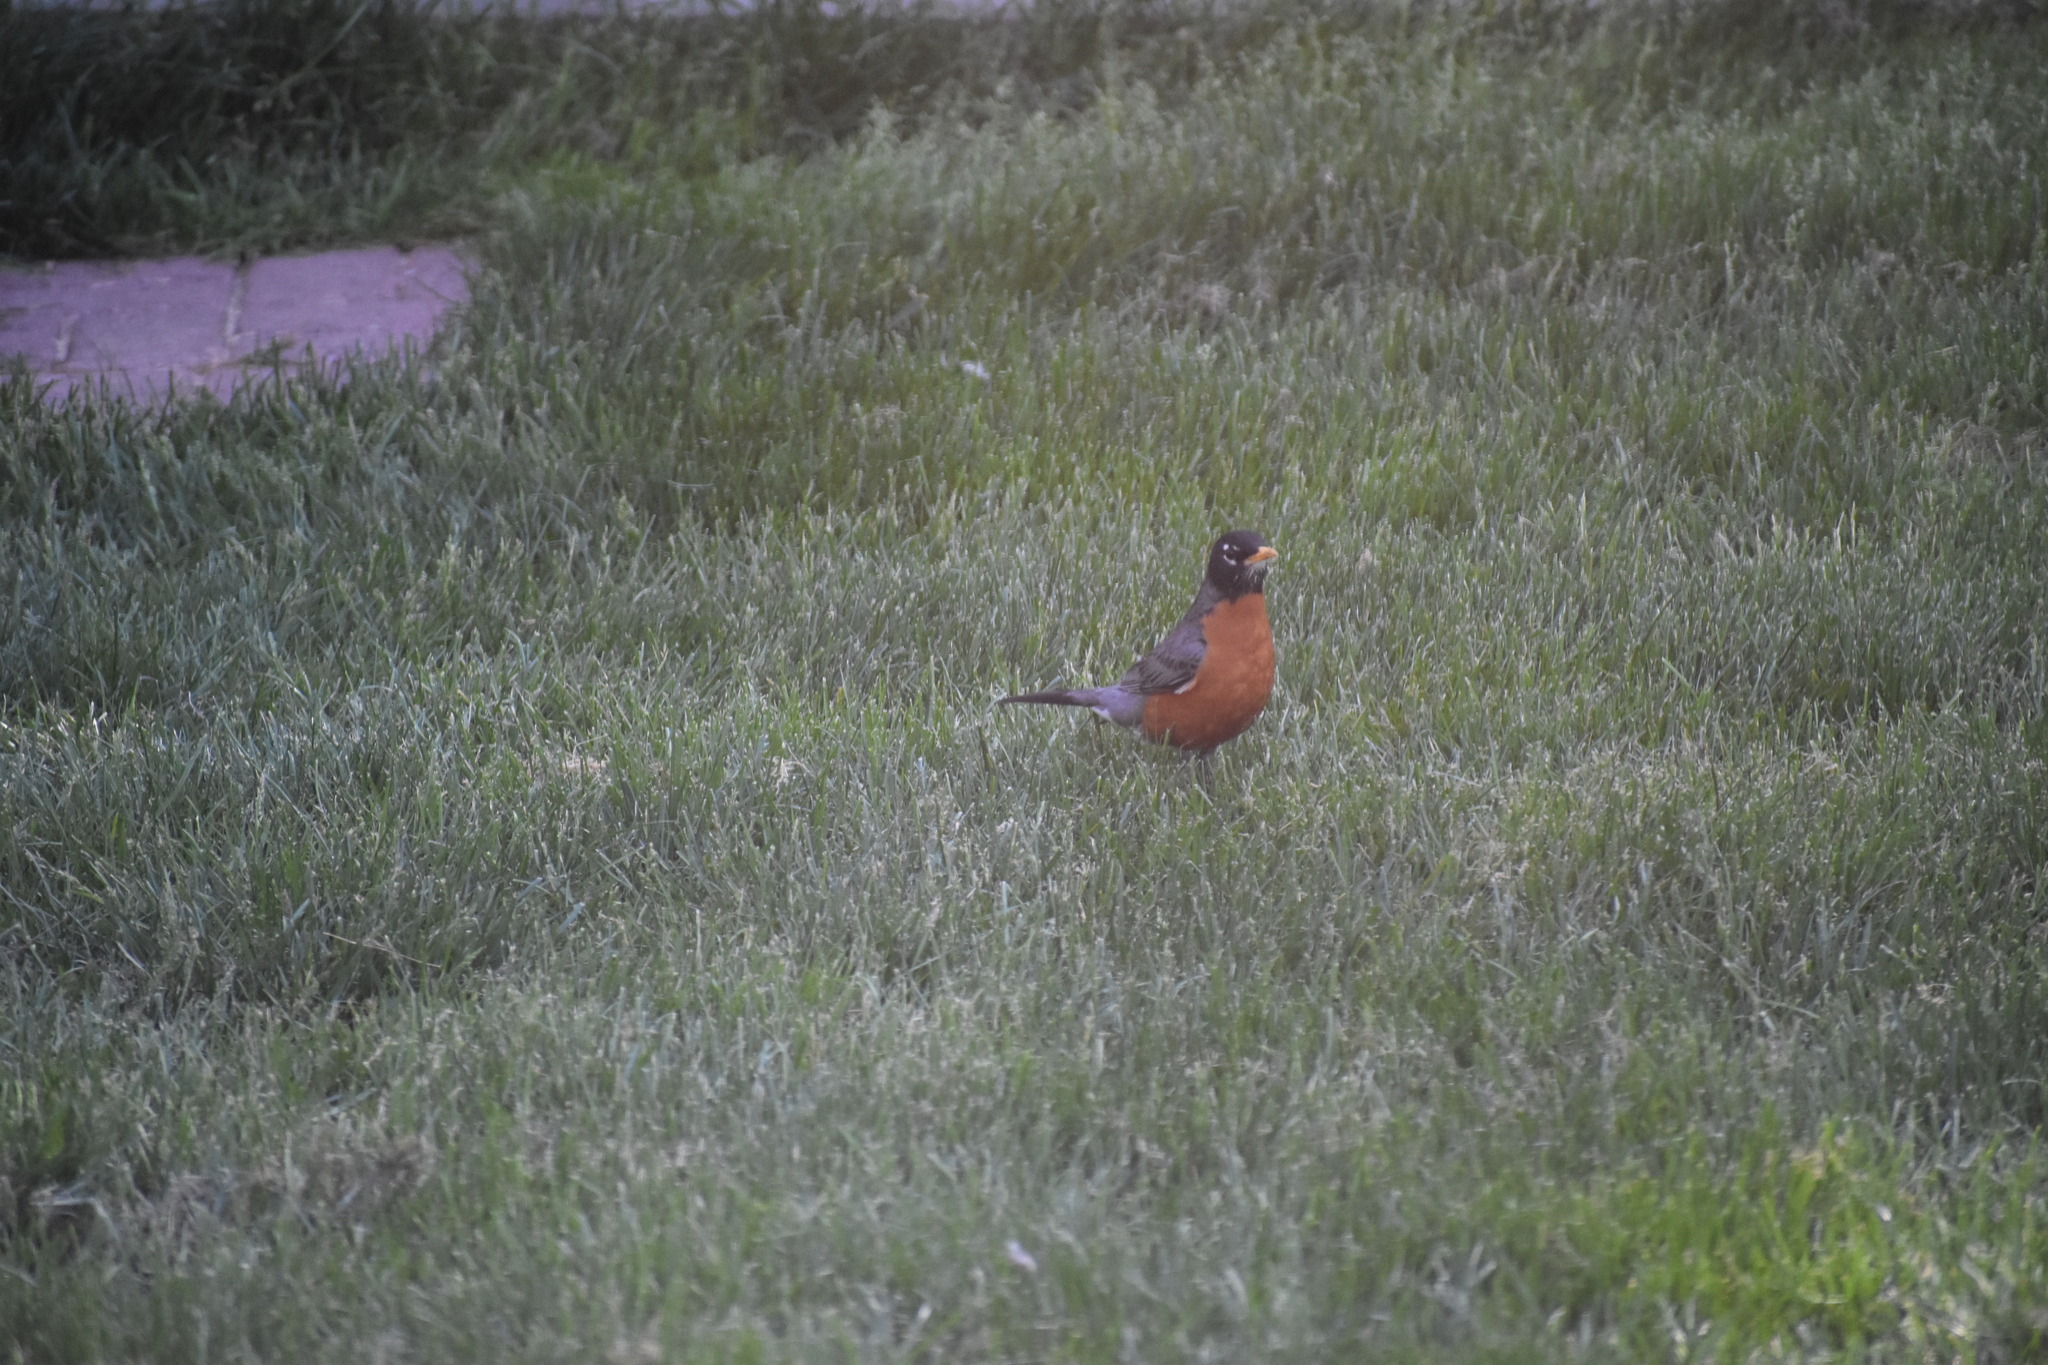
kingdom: Animalia
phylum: Chordata
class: Aves
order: Passeriformes
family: Turdidae
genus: Turdus
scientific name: Turdus migratorius
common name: American robin
